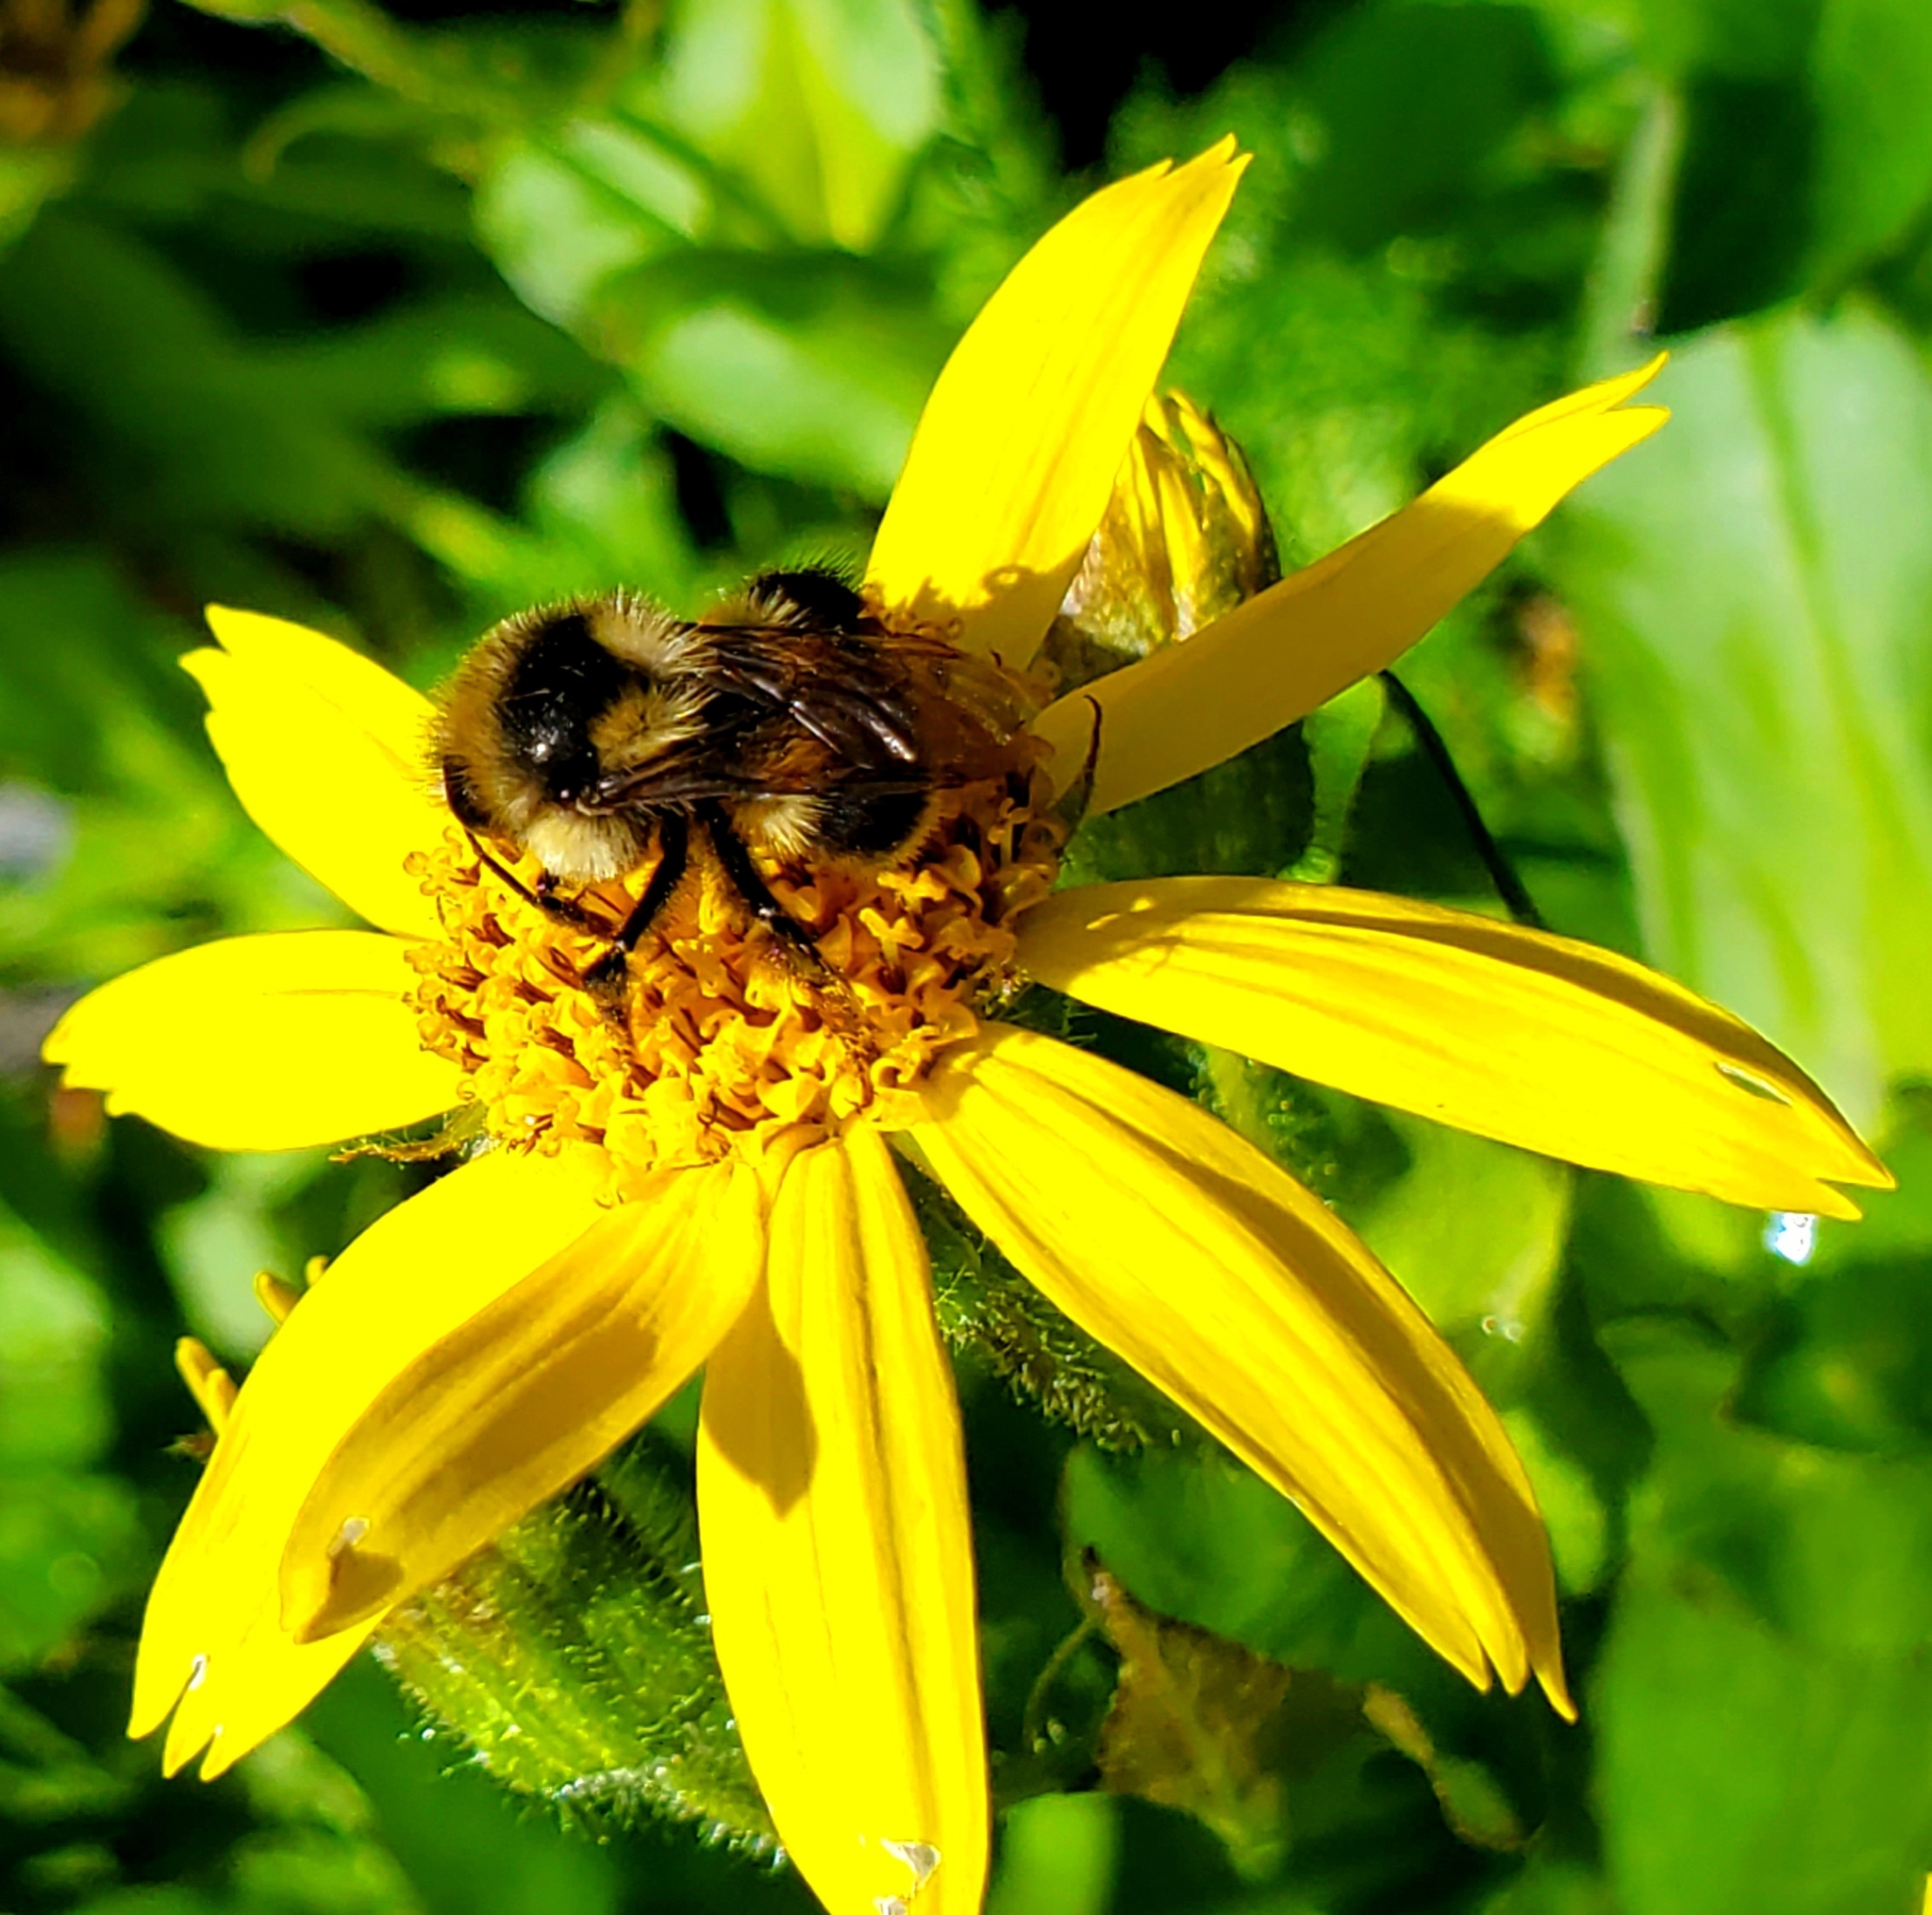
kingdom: Animalia
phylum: Arthropoda
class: Insecta
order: Hymenoptera
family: Apidae
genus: Bombus
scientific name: Bombus vancouverensis
